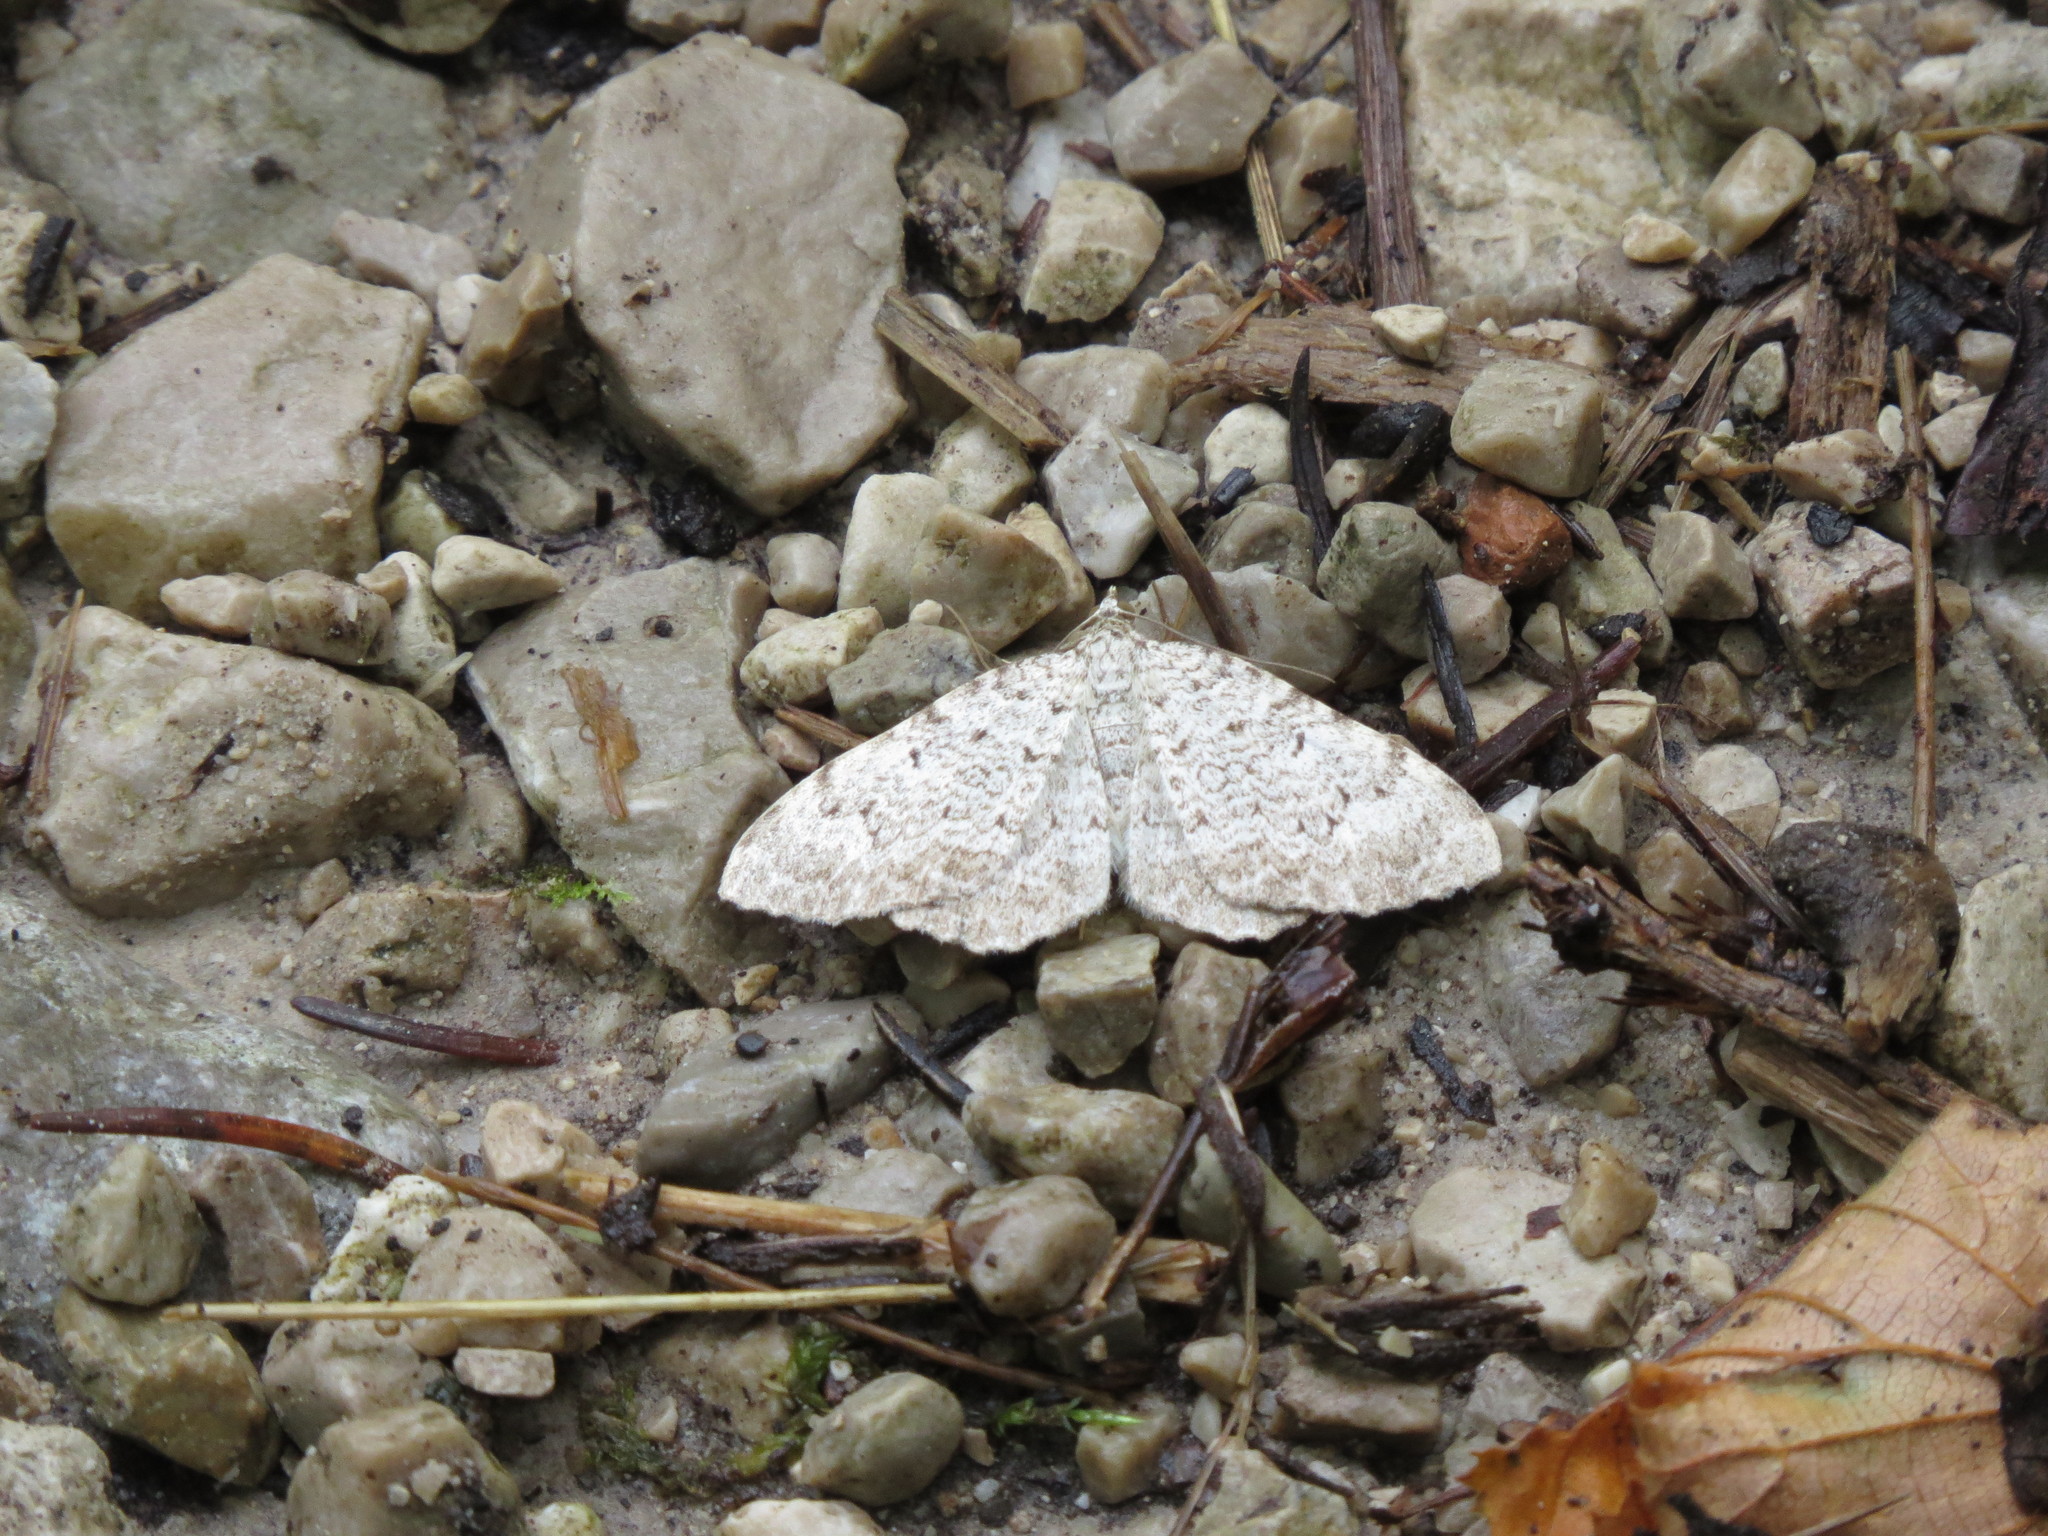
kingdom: Animalia
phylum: Arthropoda
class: Insecta
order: Lepidoptera
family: Geometridae
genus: Euphyia
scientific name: Euphyia scripturata
